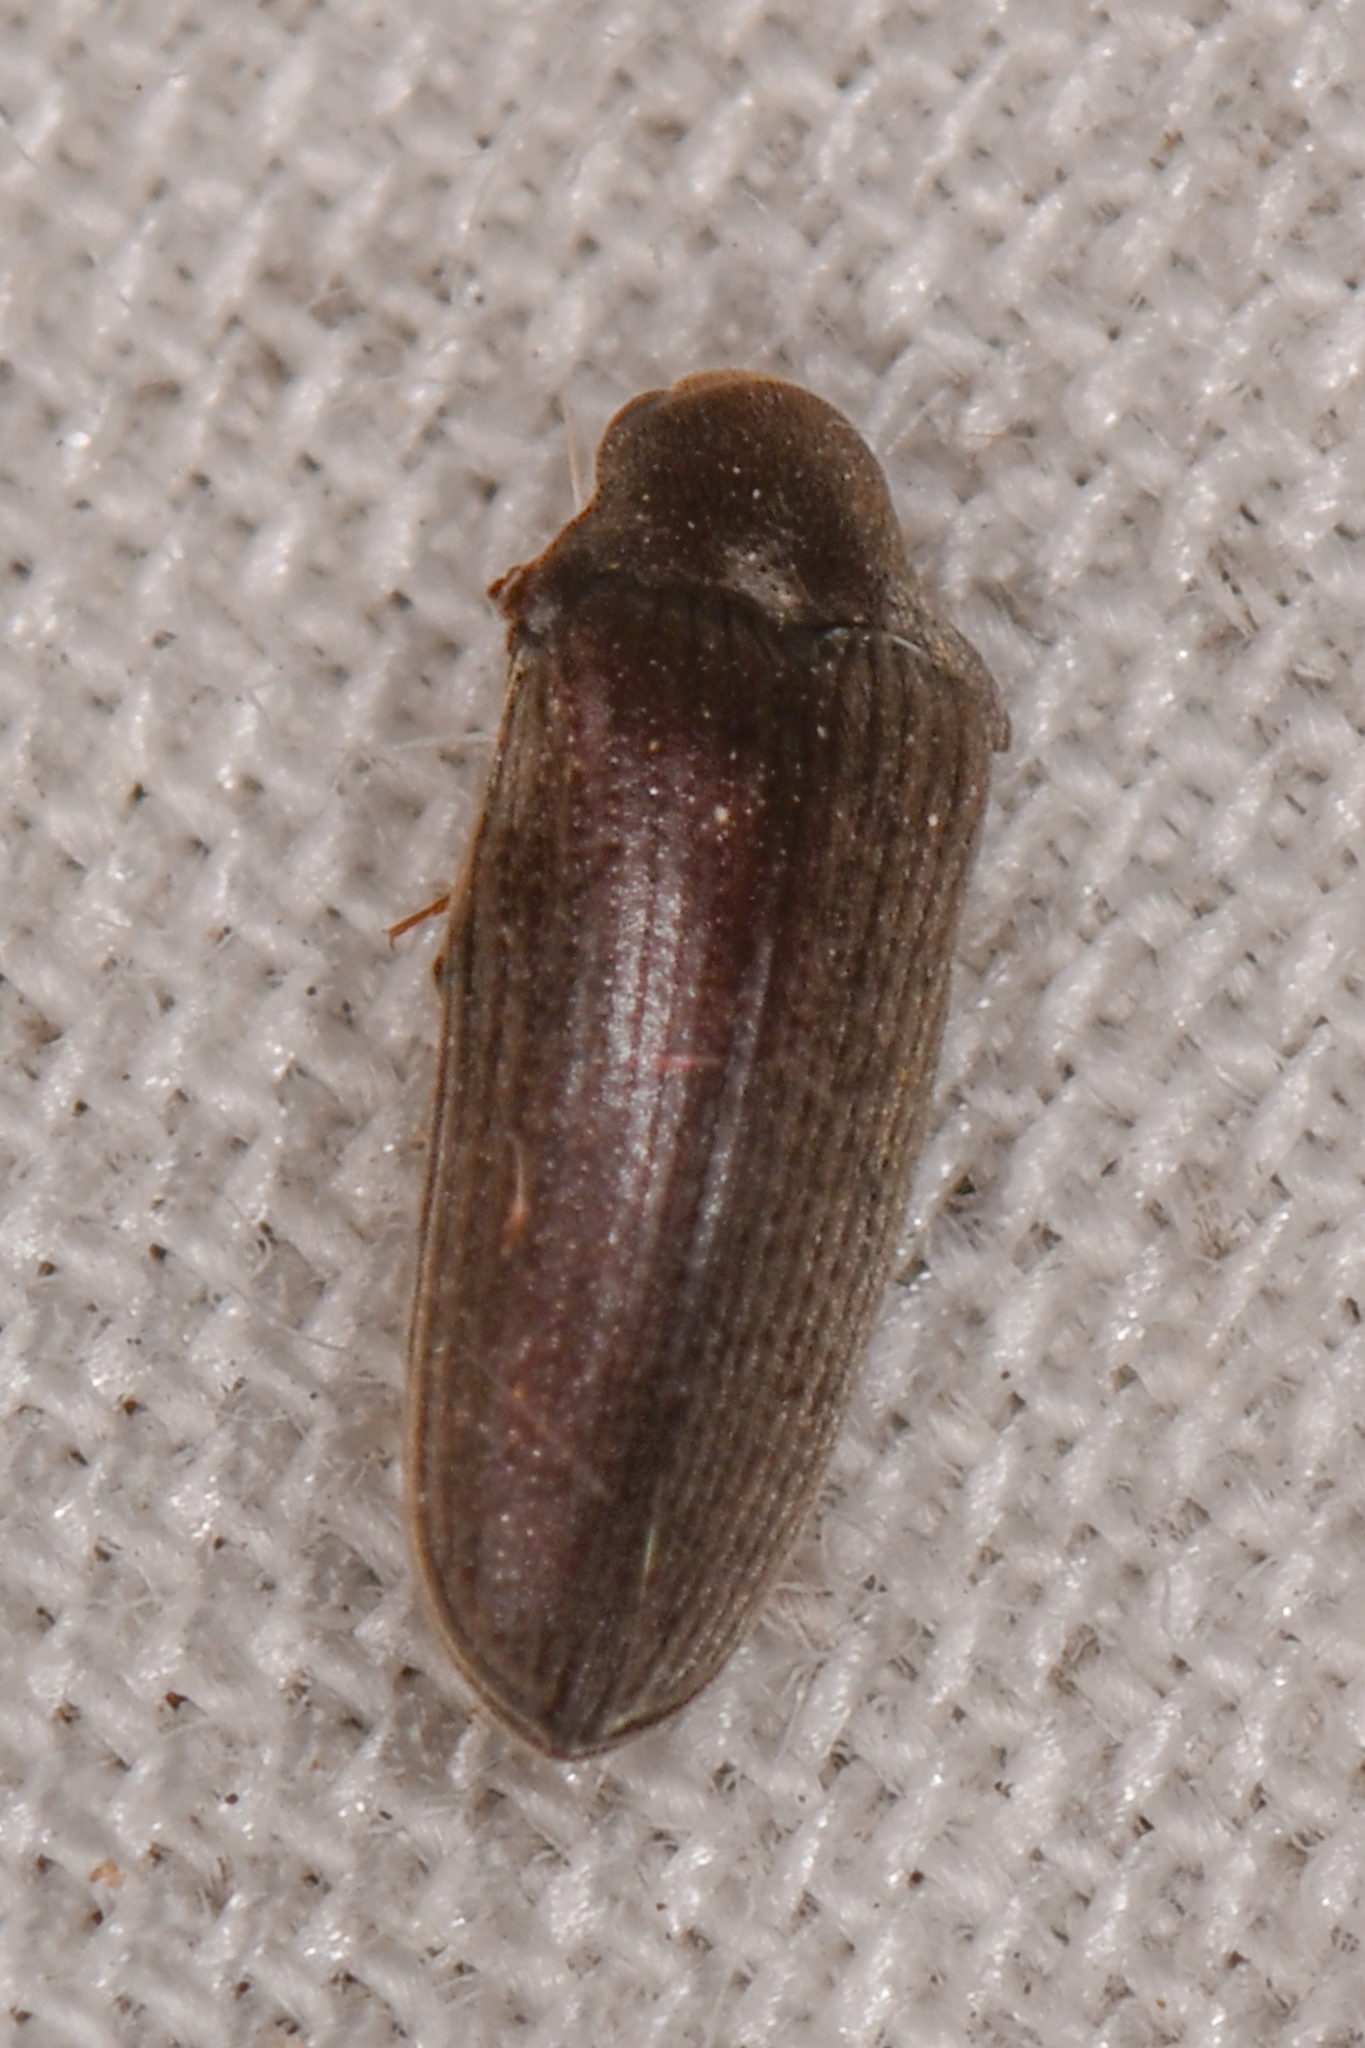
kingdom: Animalia
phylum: Arthropoda
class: Insecta
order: Coleoptera
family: Throscidae
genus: Pactopus
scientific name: Pactopus hornii
